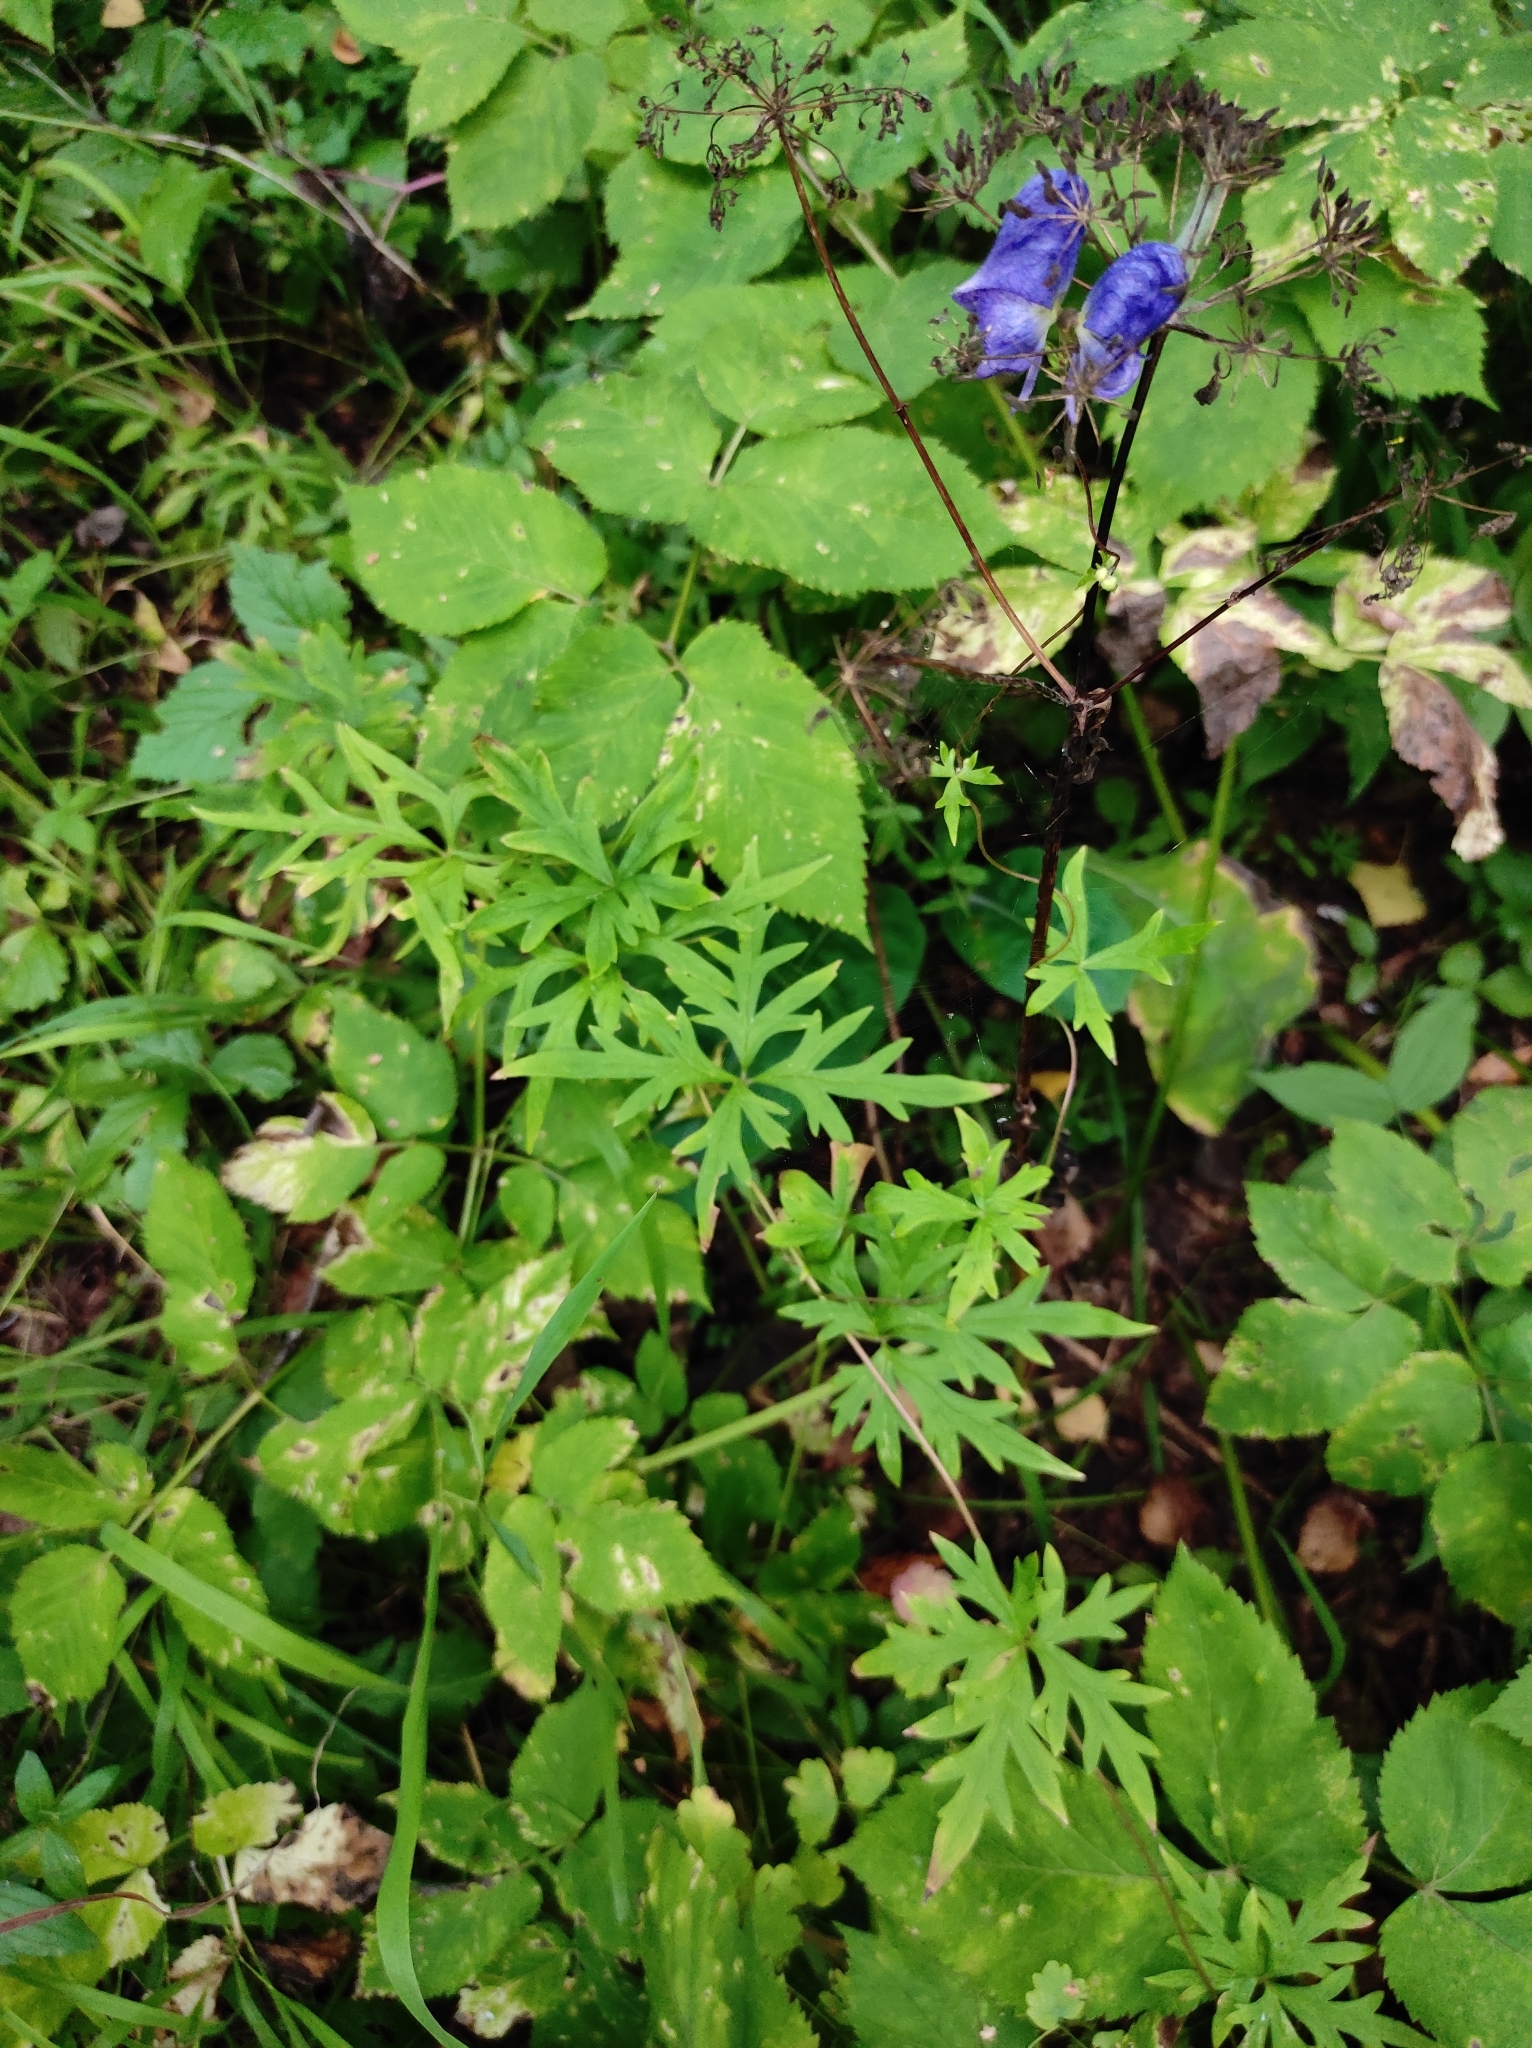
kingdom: Plantae
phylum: Tracheophyta
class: Magnoliopsida
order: Ranunculales
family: Ranunculaceae
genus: Aconitum
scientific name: Aconitum volubile
